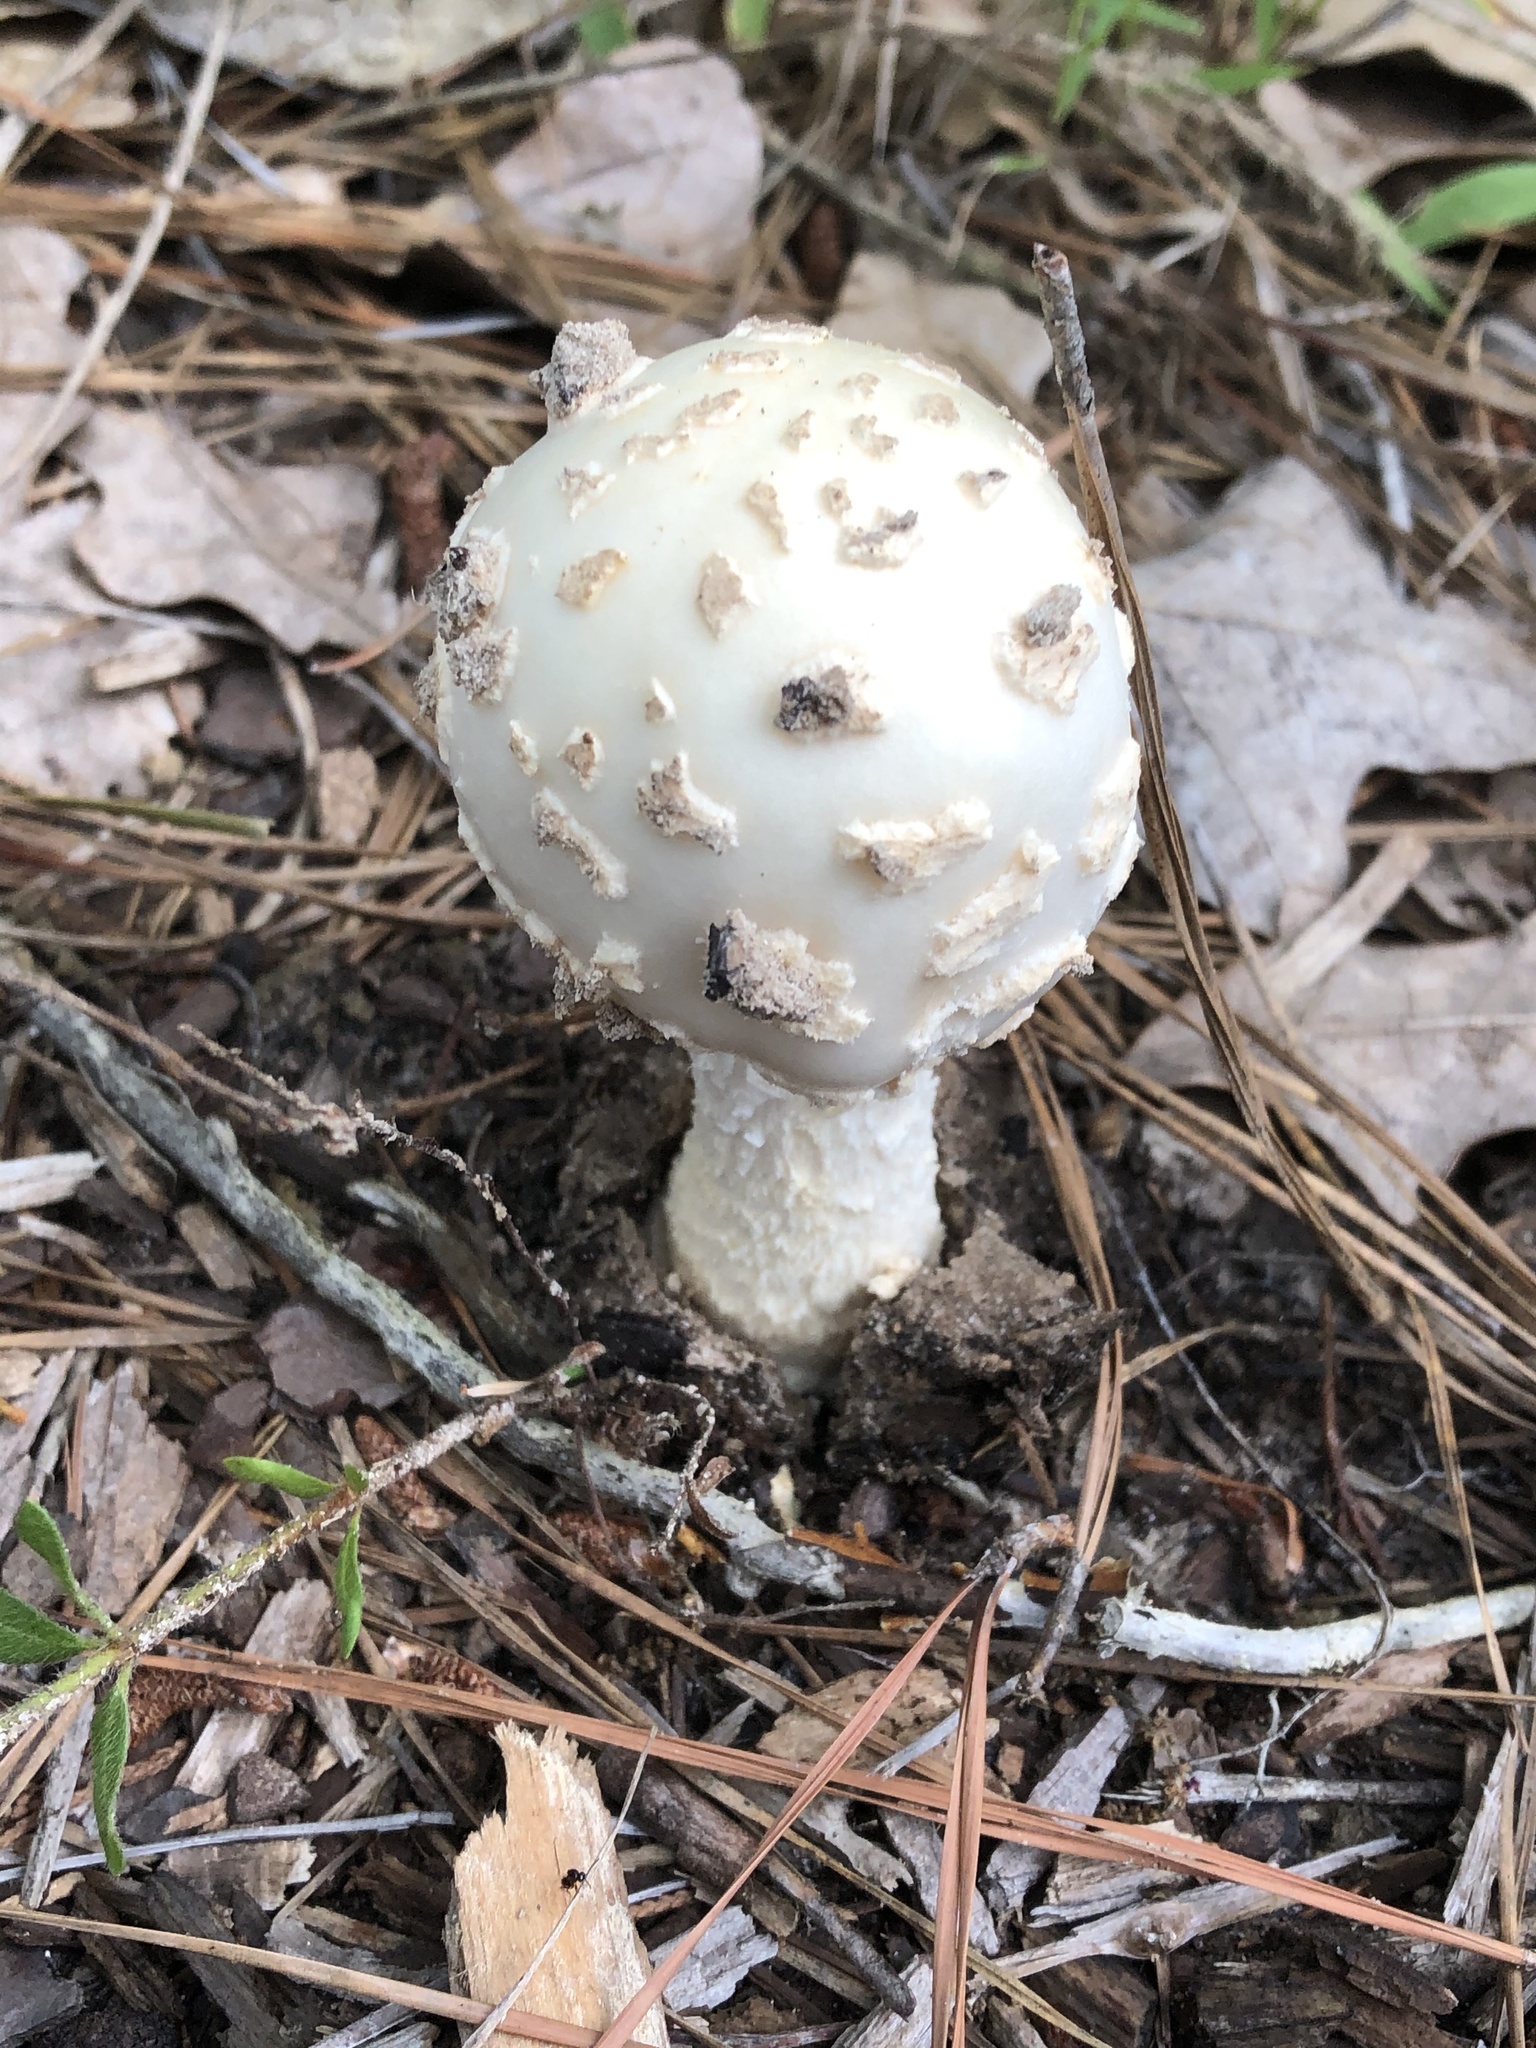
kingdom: Fungi
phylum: Basidiomycota
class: Agaricomycetes
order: Agaricales
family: Amanitaceae
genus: Amanita
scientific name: Amanita canescens
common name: Golden threads lepidella
